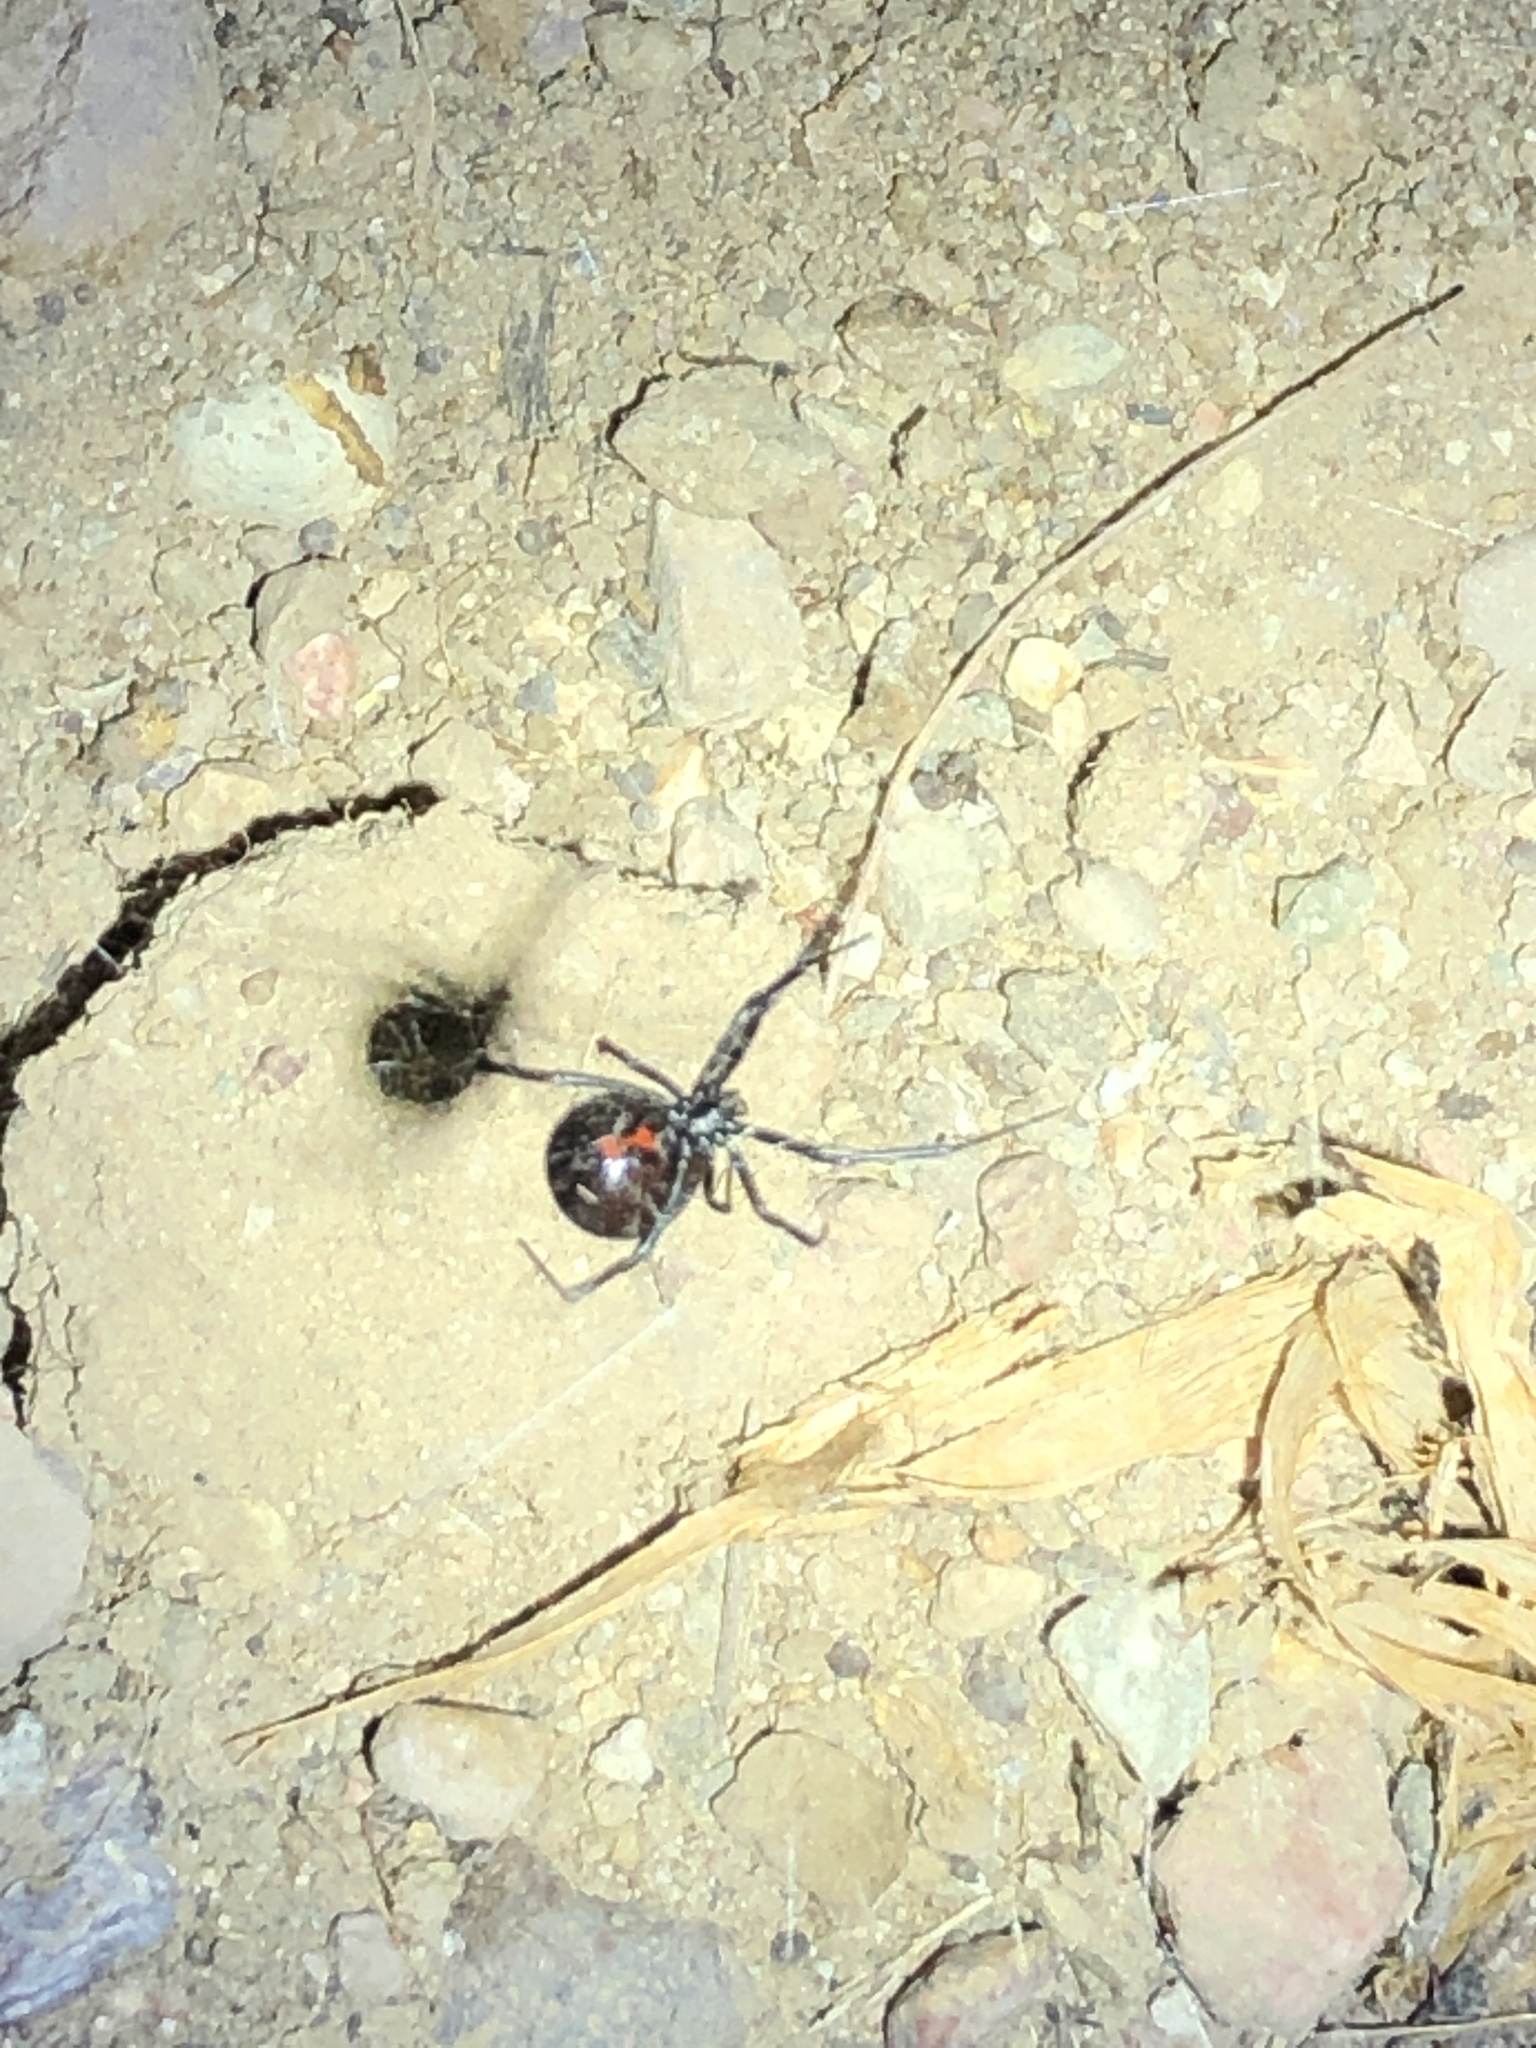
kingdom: Animalia
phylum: Arthropoda
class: Arachnida
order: Araneae
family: Theridiidae
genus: Latrodectus
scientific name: Latrodectus hesperus
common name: Western black widow
